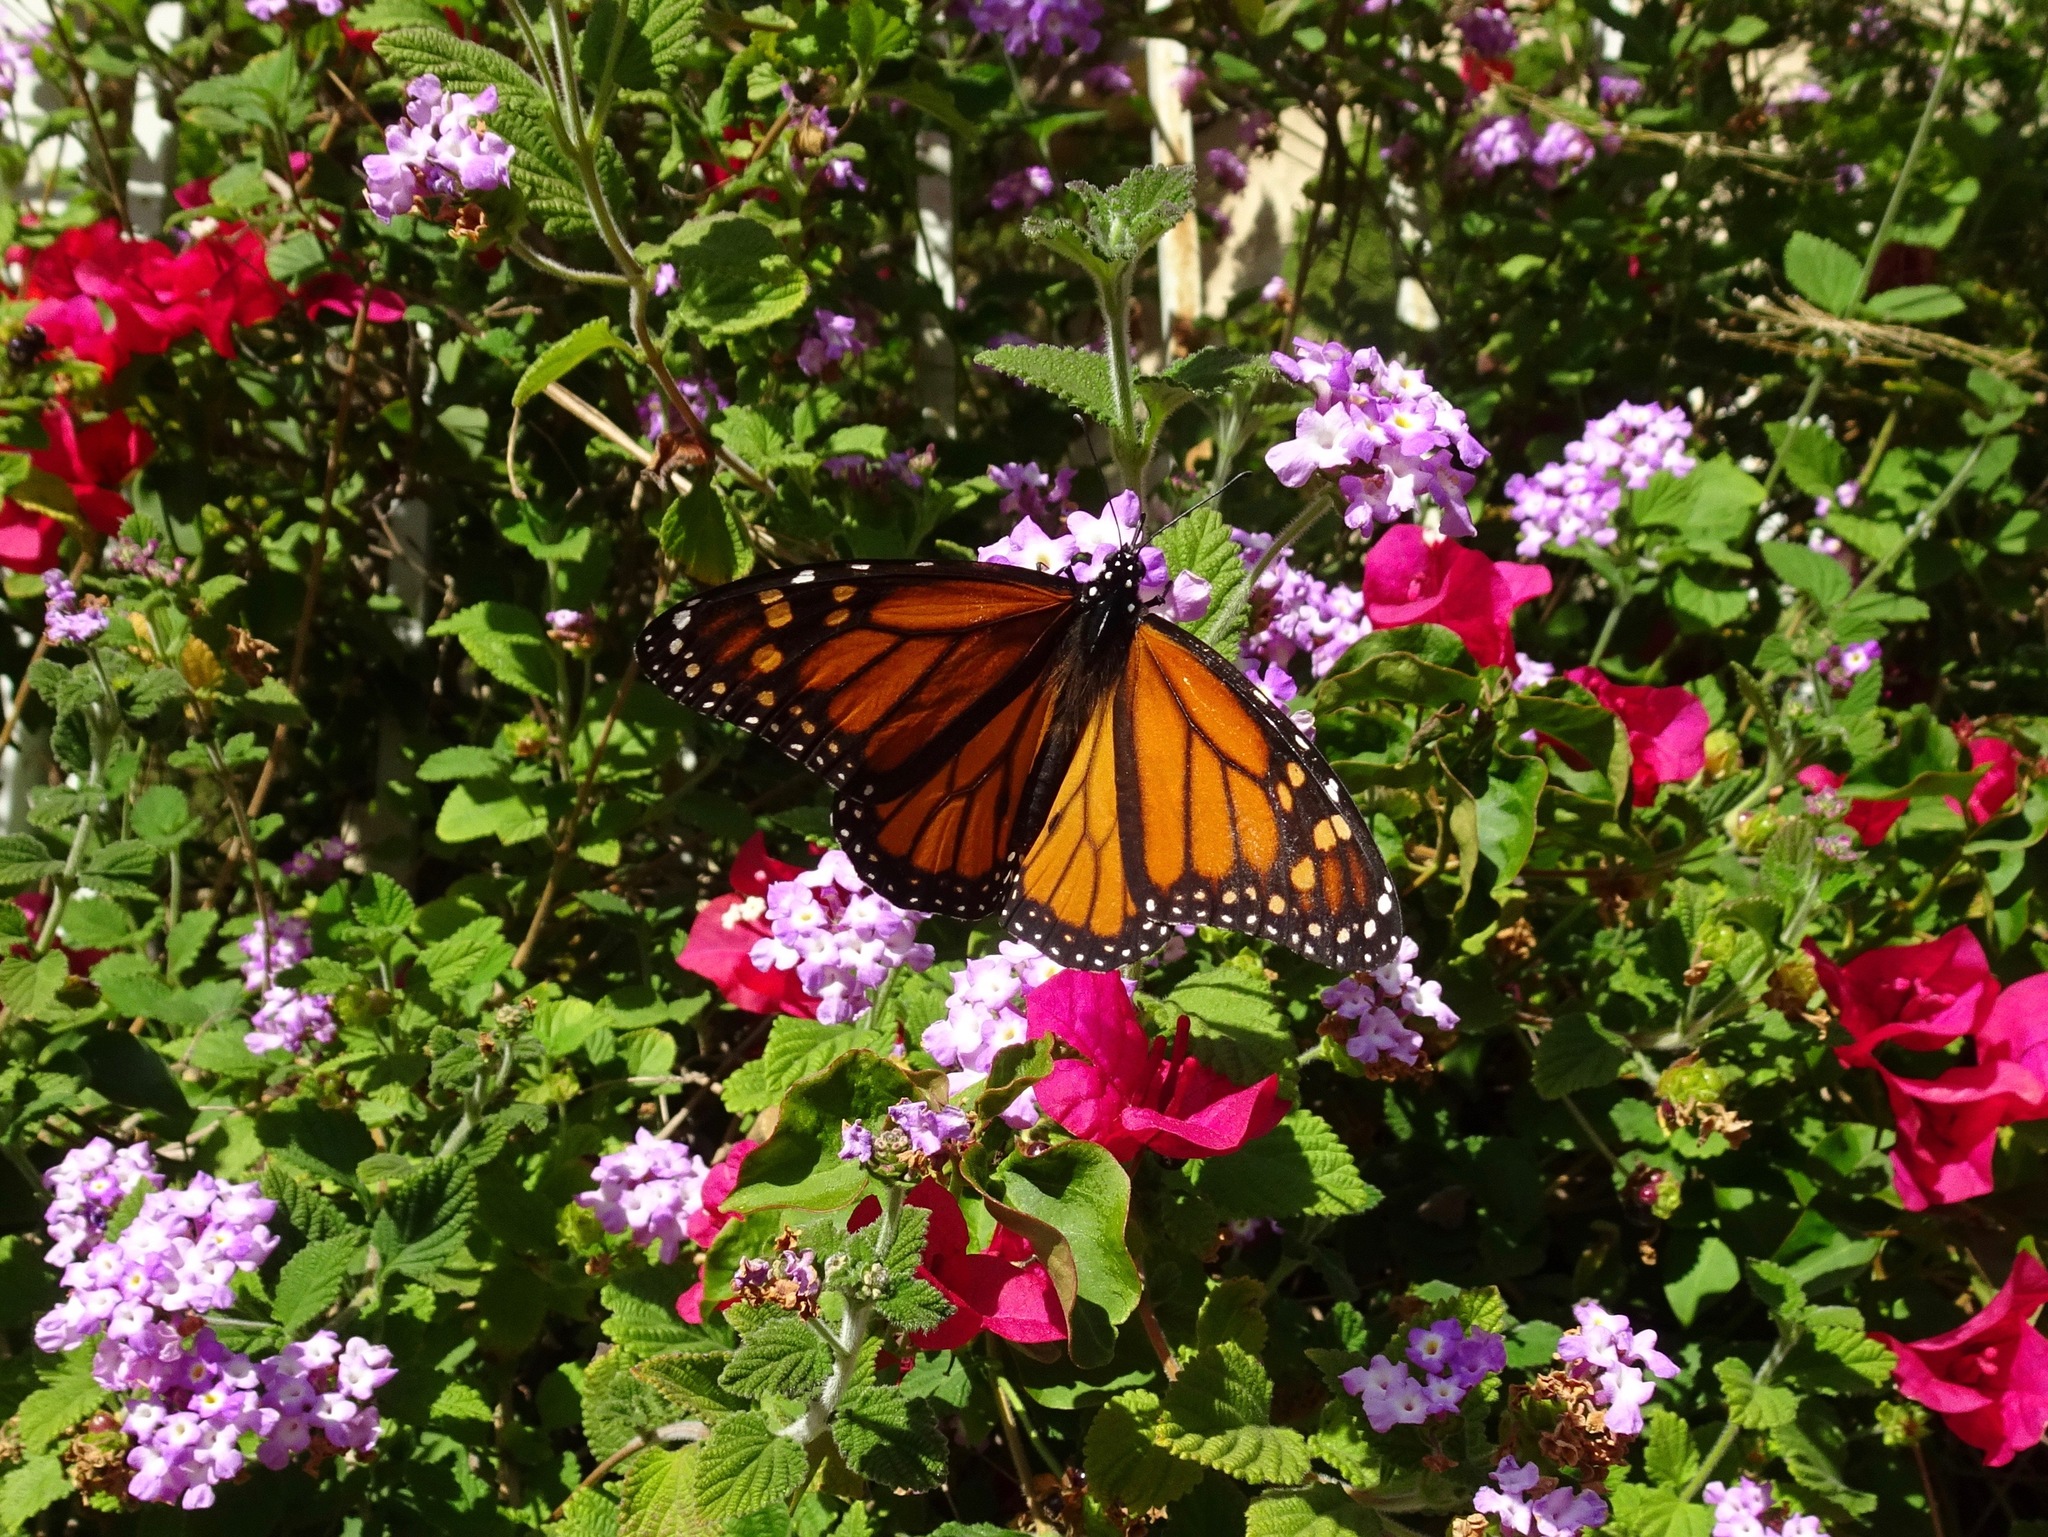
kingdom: Animalia
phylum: Arthropoda
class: Insecta
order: Lepidoptera
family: Nymphalidae
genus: Danaus
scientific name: Danaus plexippus
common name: Monarch
